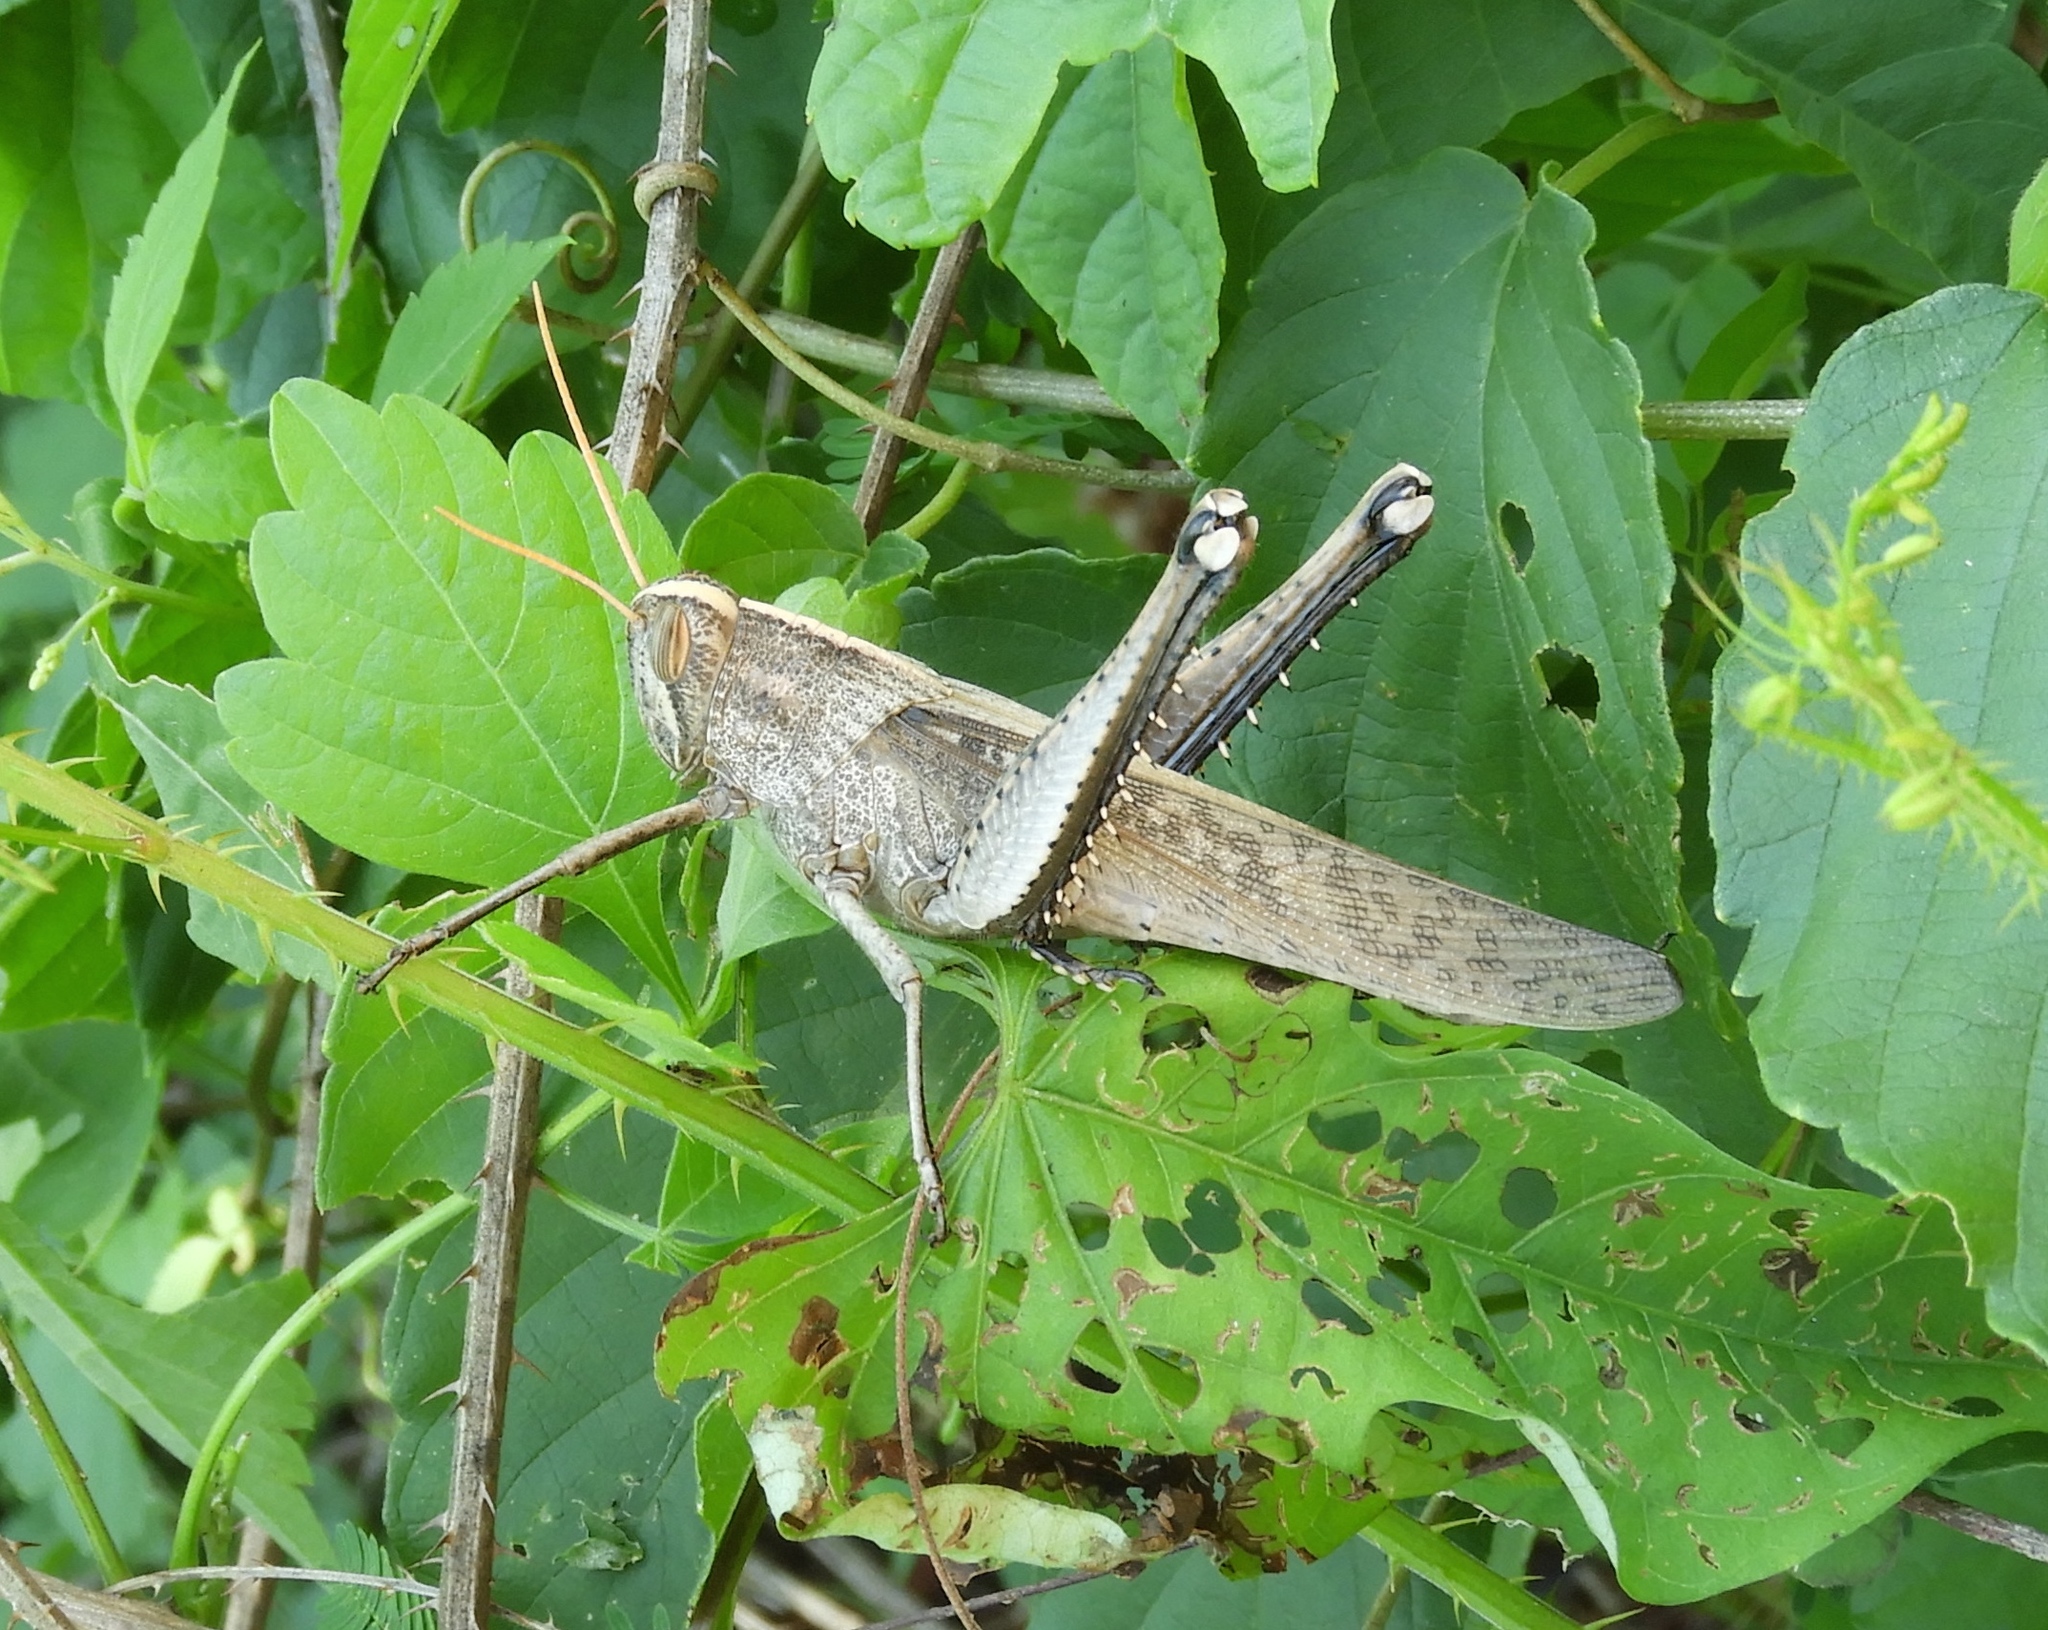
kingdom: Animalia
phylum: Arthropoda
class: Insecta
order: Orthoptera
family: Acrididae
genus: Schistocerca
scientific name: Schistocerca camerata
